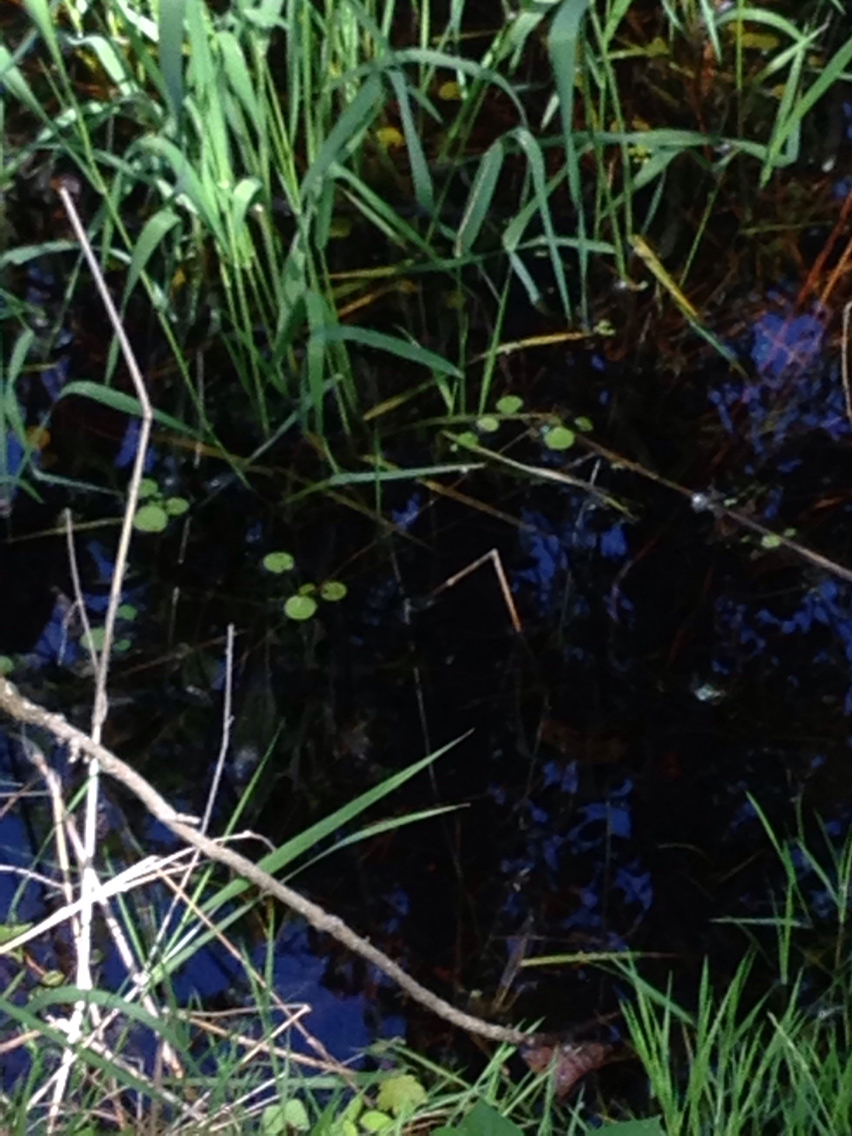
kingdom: Plantae
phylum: Tracheophyta
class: Liliopsida
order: Alismatales
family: Hydrocharitaceae
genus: Hydrocharis
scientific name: Hydrocharis morsus-ranae
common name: Frogbit
